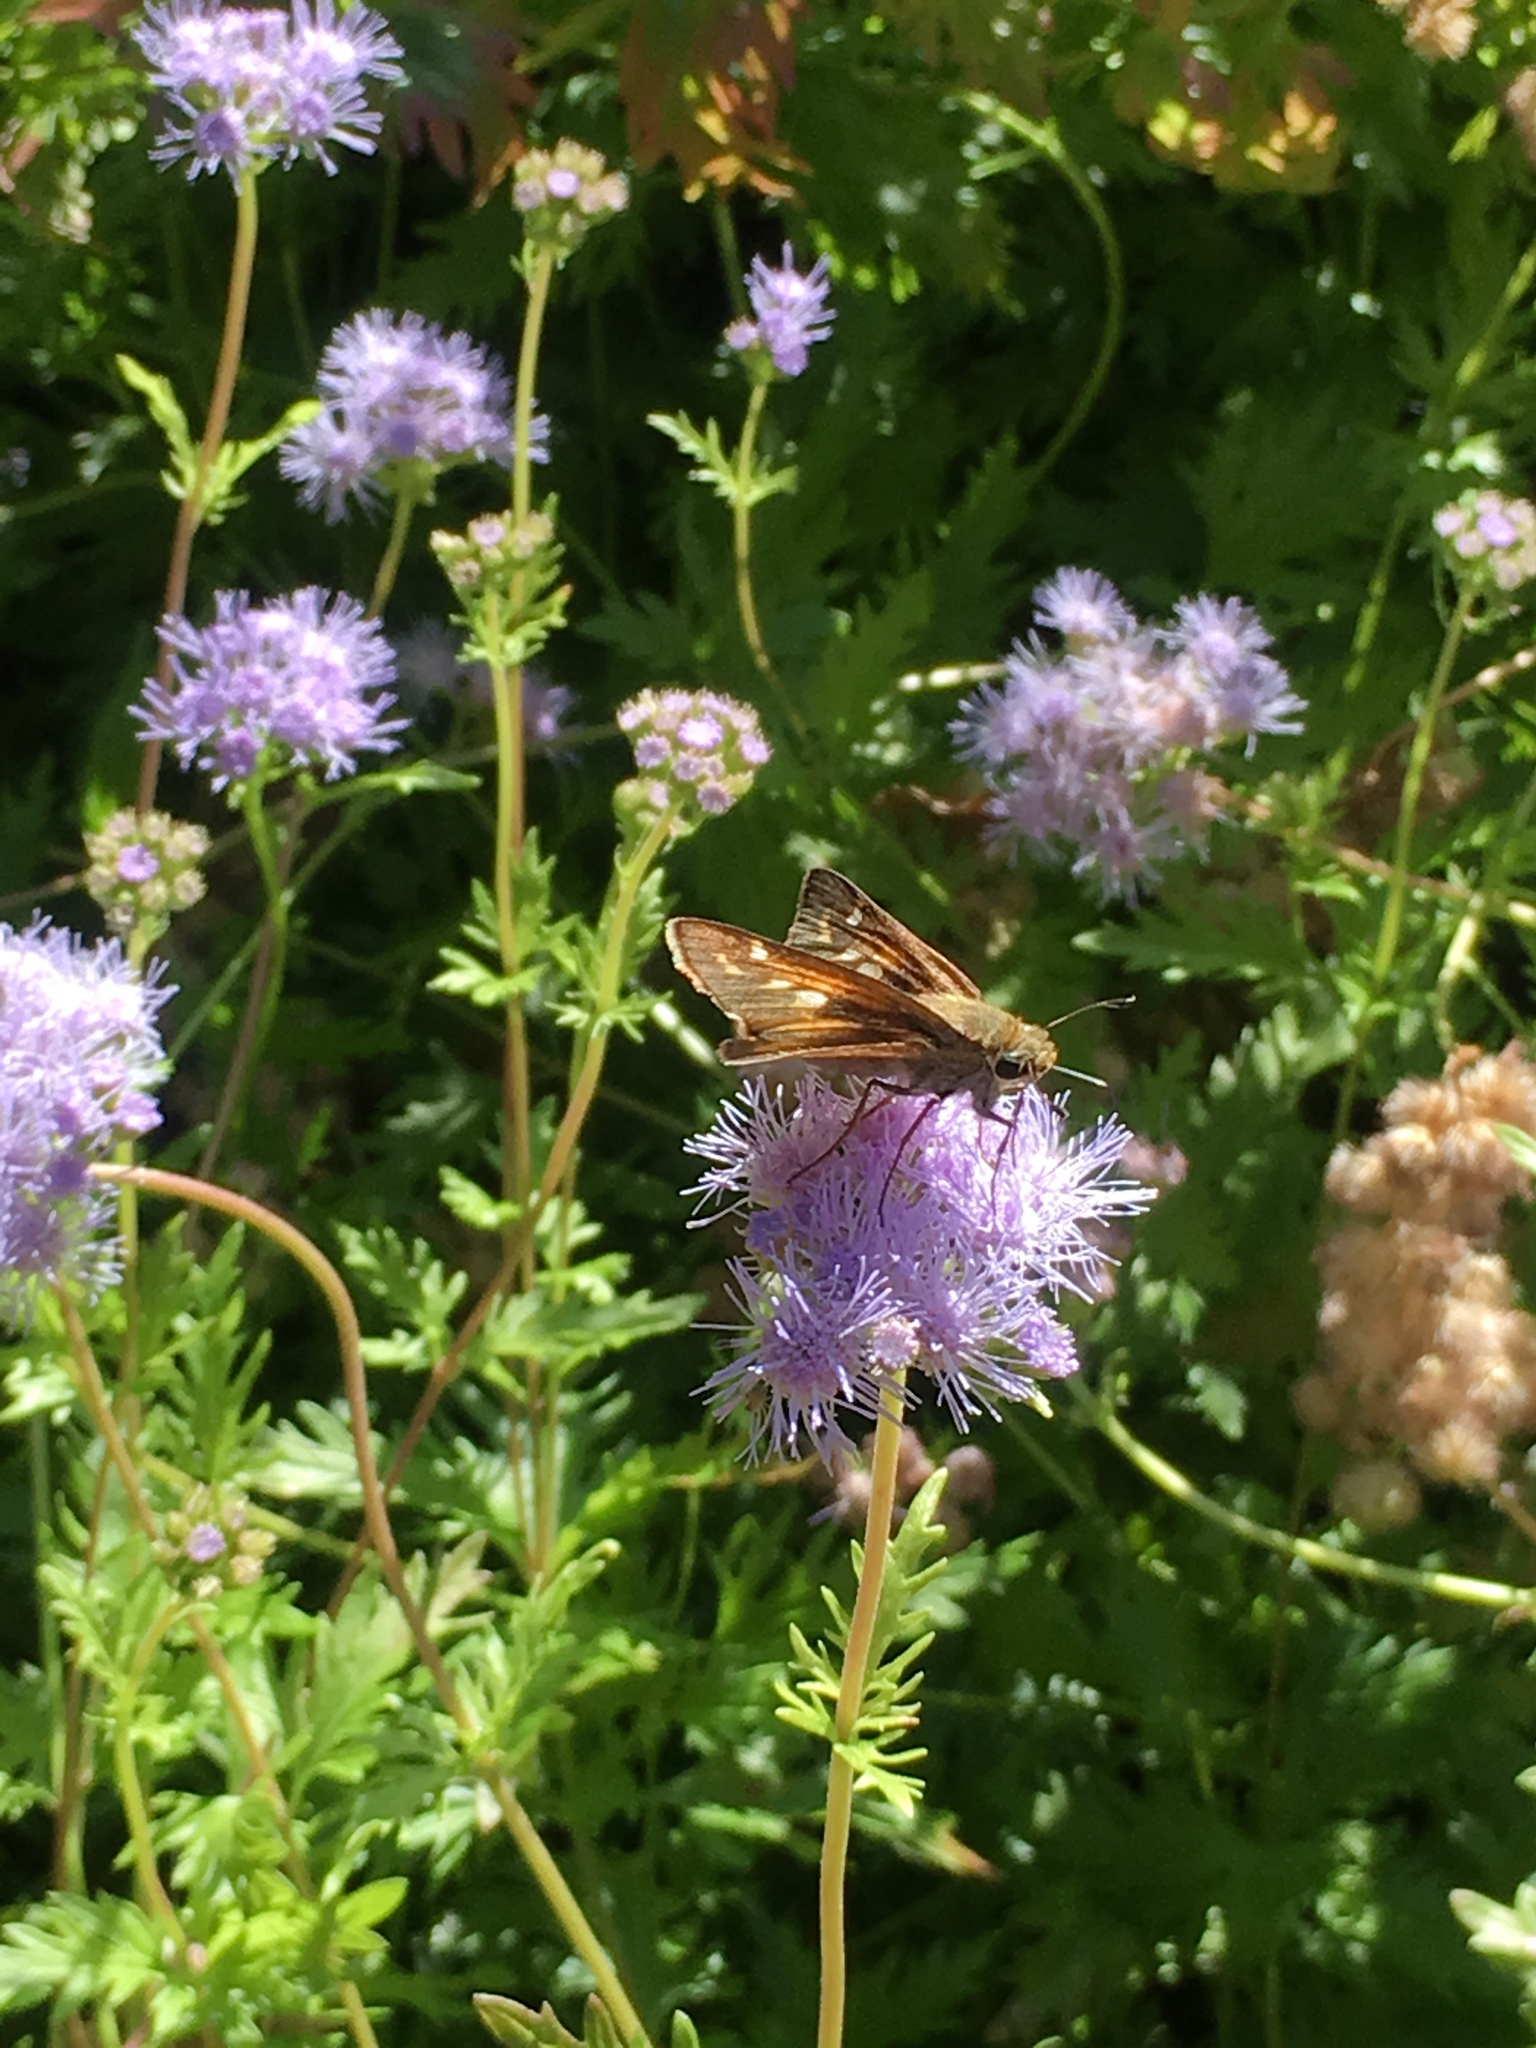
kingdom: Animalia
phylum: Arthropoda
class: Insecta
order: Lepidoptera
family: Hesperiidae
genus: Atalopedes
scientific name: Atalopedes
